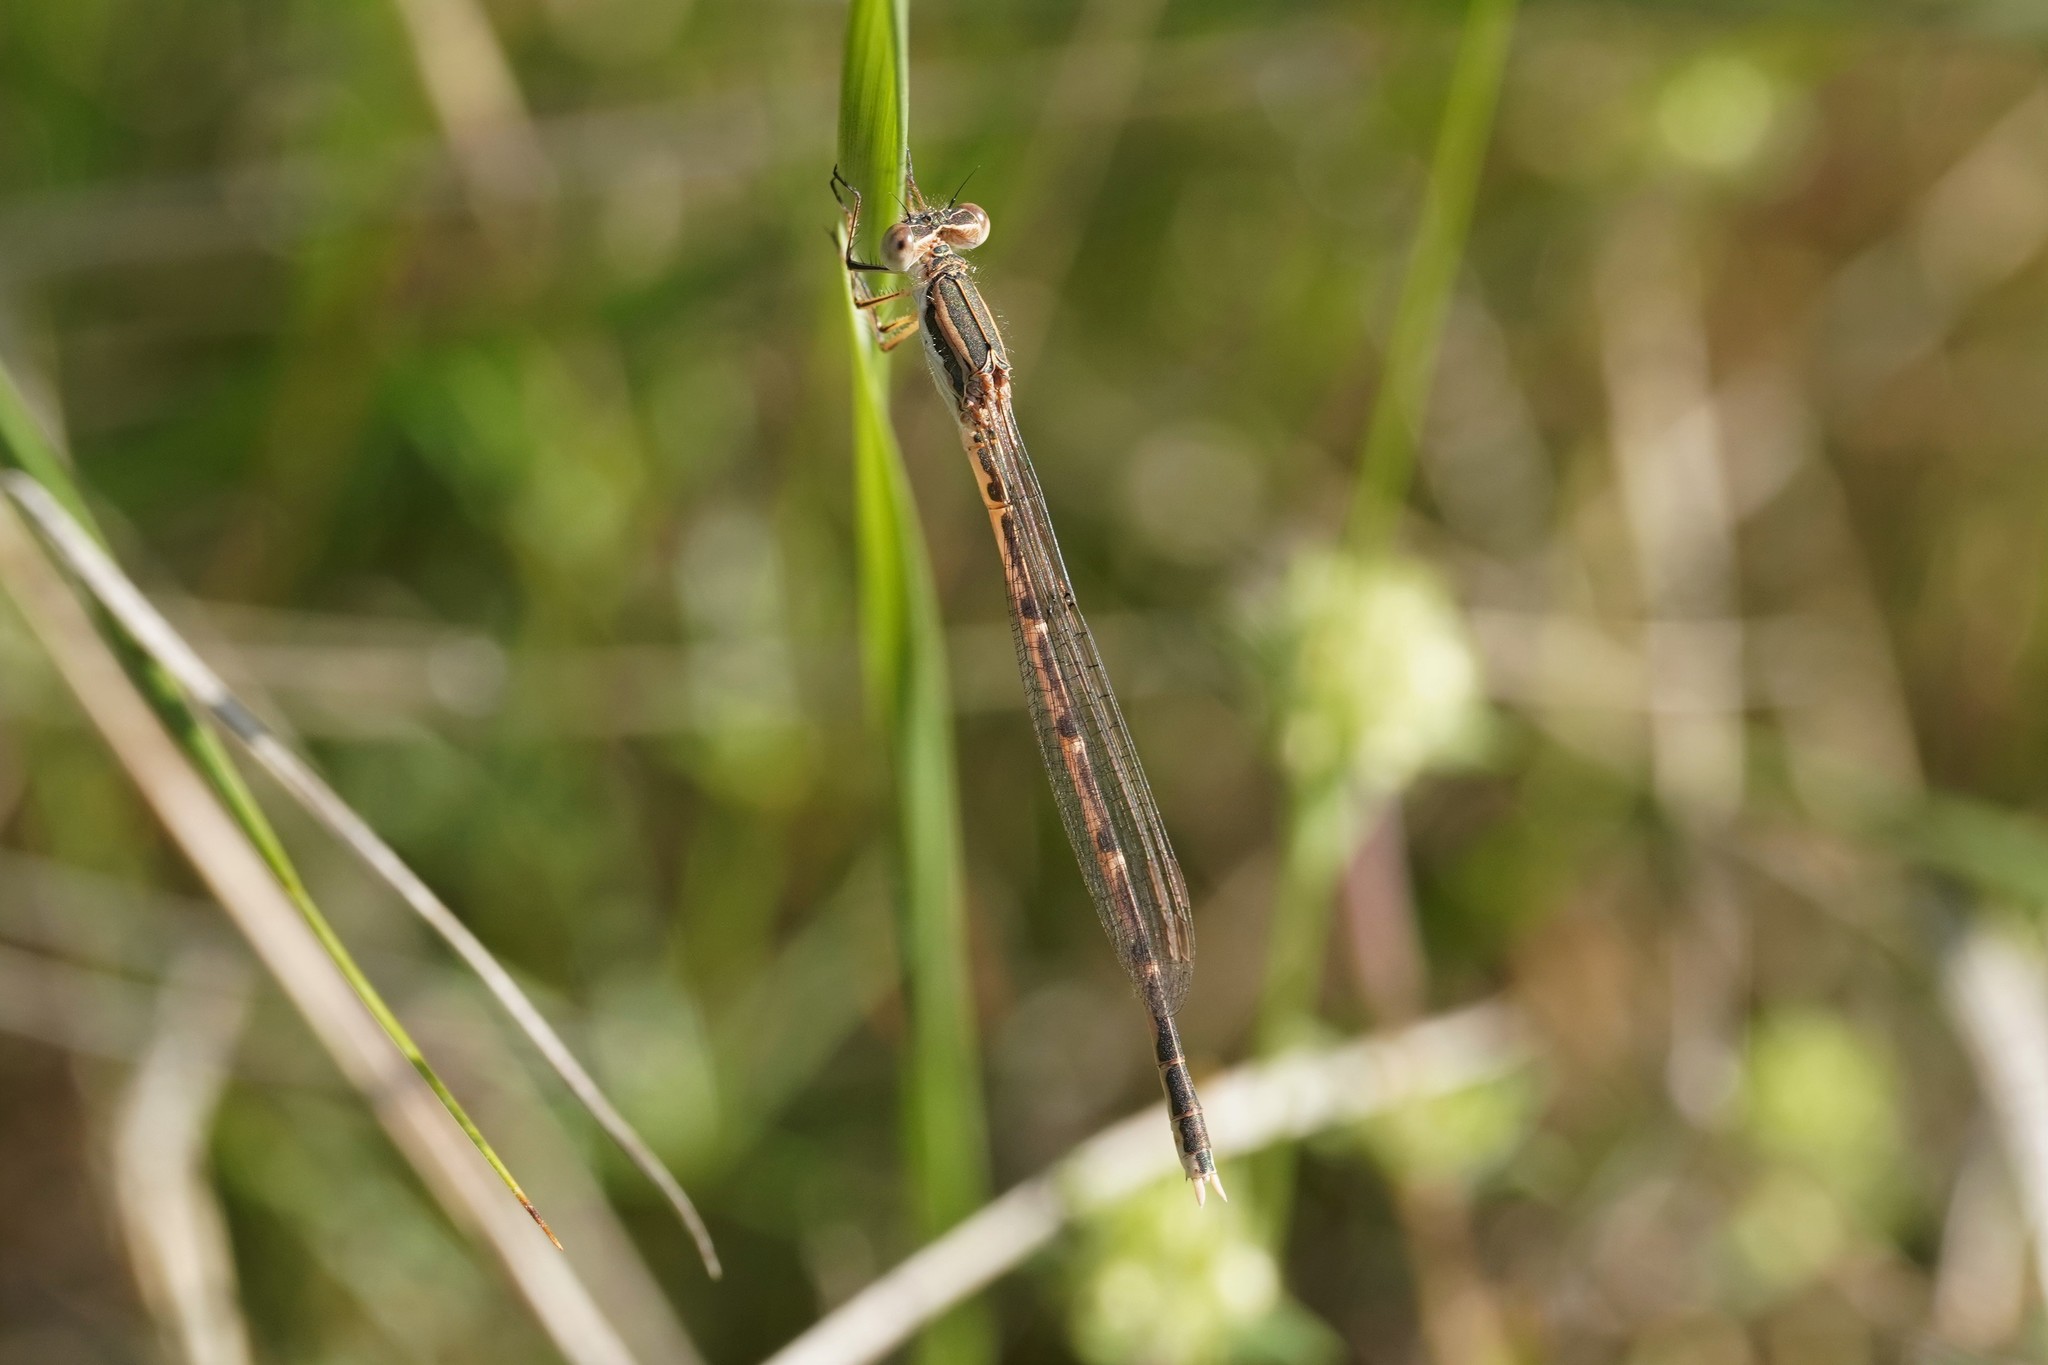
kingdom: Animalia
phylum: Arthropoda
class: Insecta
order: Odonata
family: Lestidae
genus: Sympecma
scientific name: Sympecma fusca
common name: Common winter damsel
